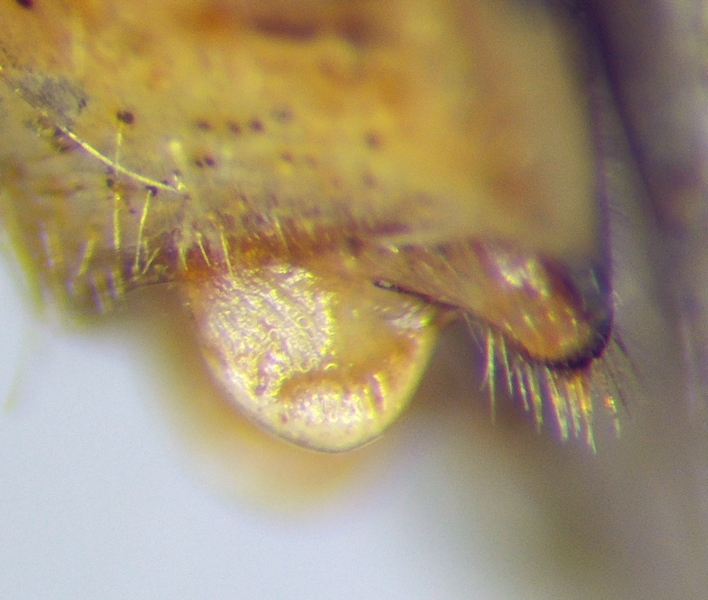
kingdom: Animalia
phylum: Arthropoda
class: Insecta
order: Hemiptera
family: Pentatomidae
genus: Dolycoris
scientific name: Dolycoris baccarum
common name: Sloe bug
